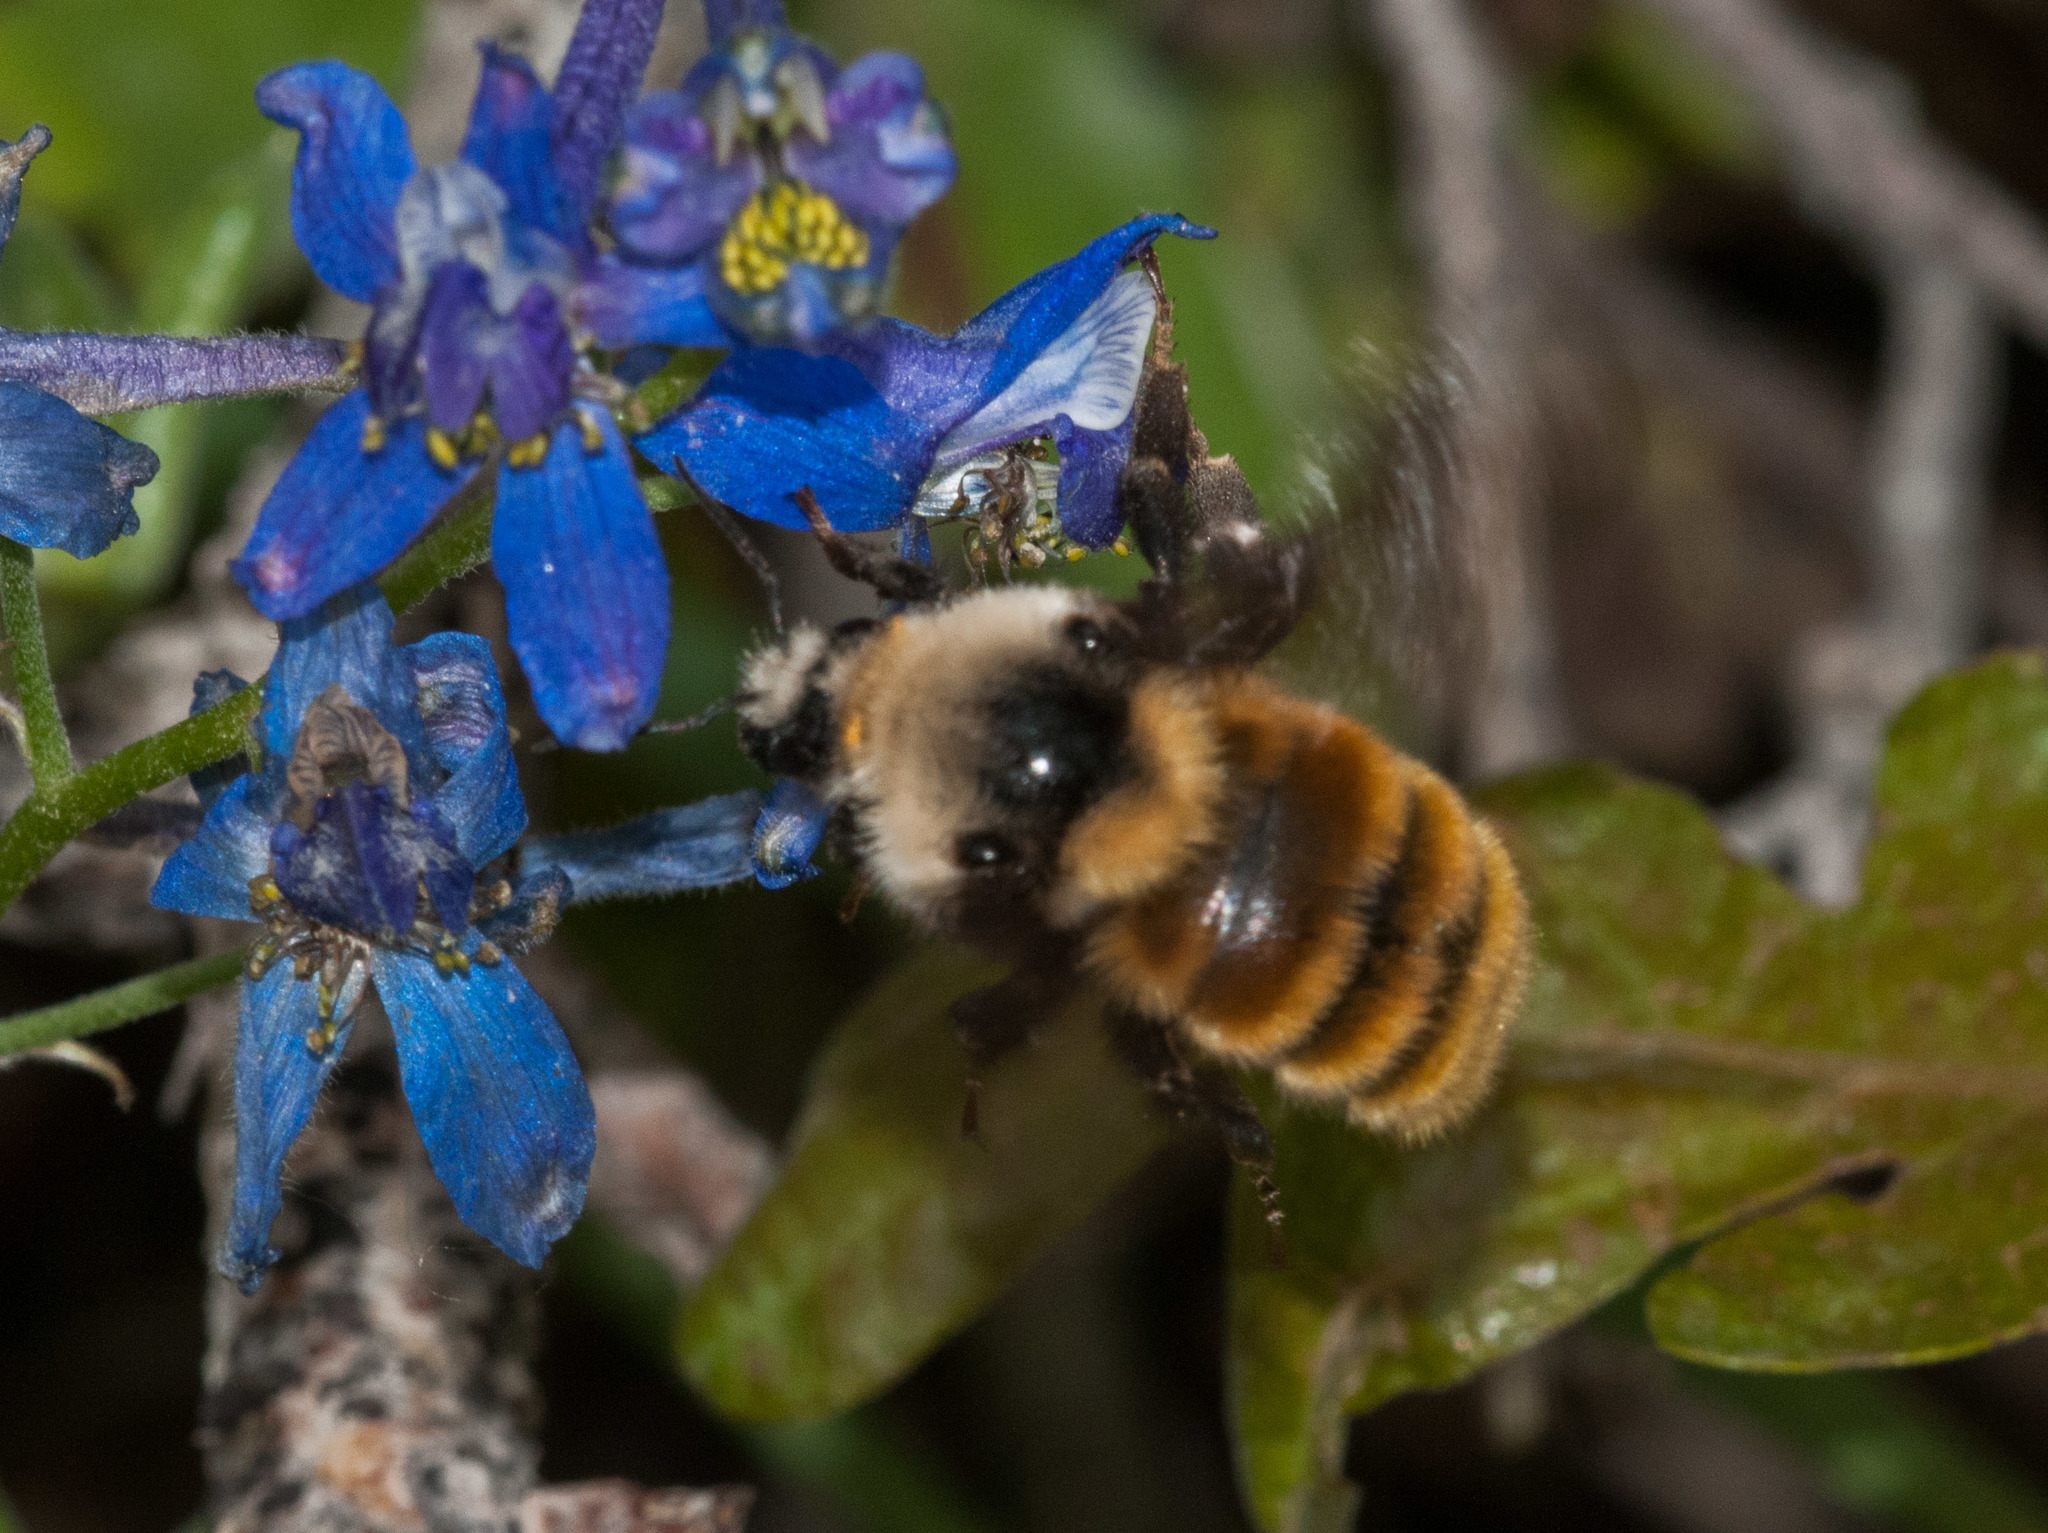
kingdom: Animalia
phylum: Arthropoda
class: Insecta
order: Hymenoptera
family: Apidae
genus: Bombus
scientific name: Bombus appositus
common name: White-shouldered bumble bee
